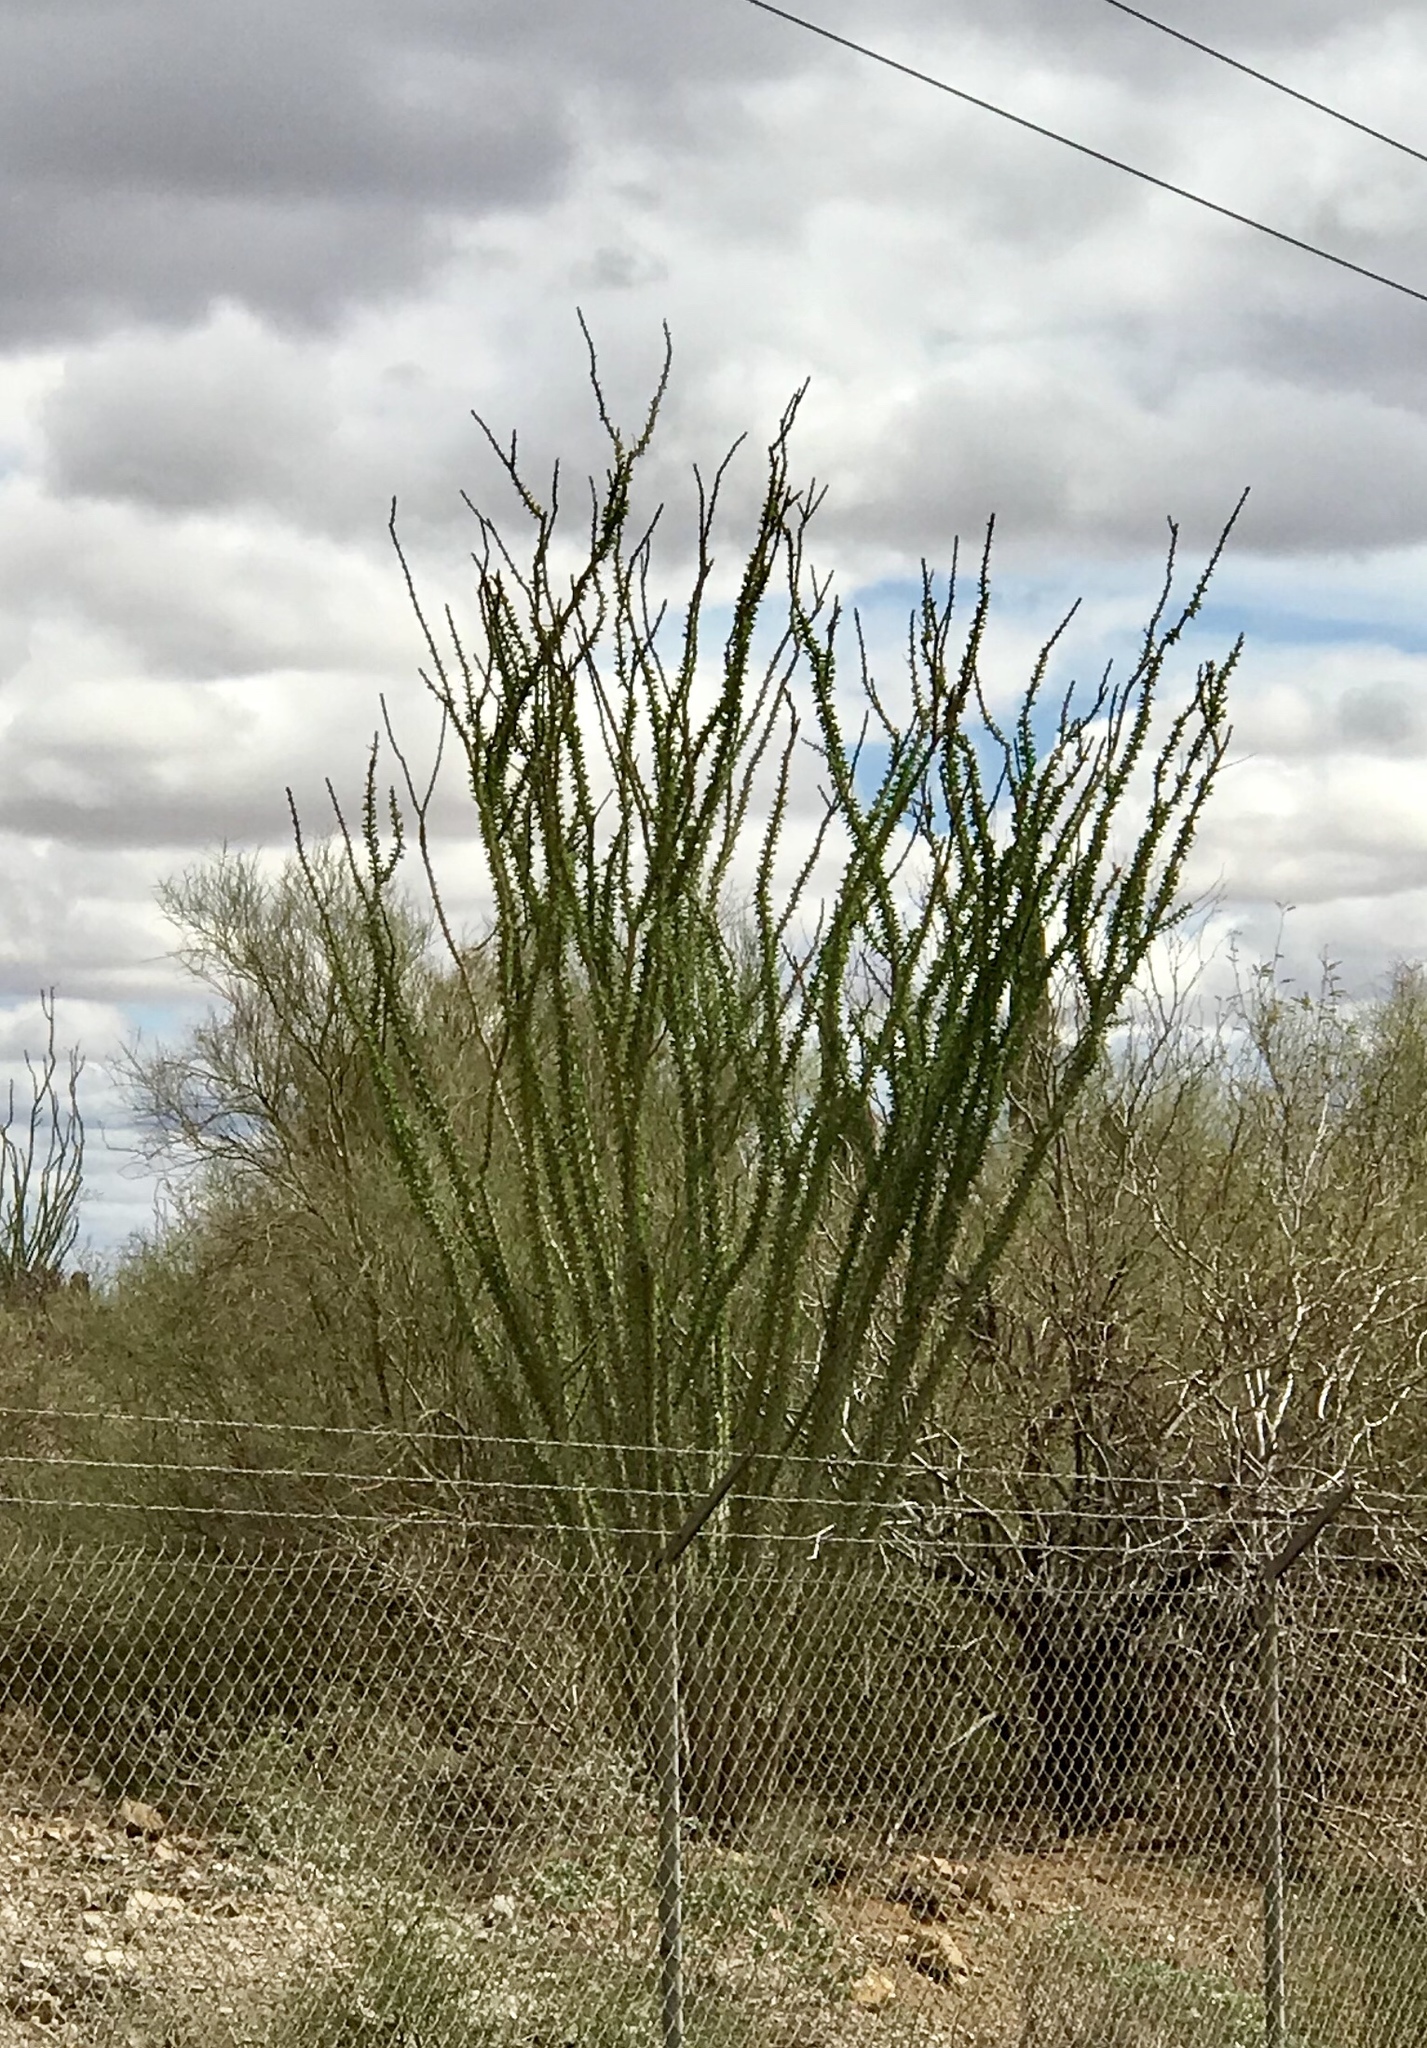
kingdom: Plantae
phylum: Tracheophyta
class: Magnoliopsida
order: Ericales
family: Fouquieriaceae
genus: Fouquieria
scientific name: Fouquieria splendens
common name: Vine-cactus
